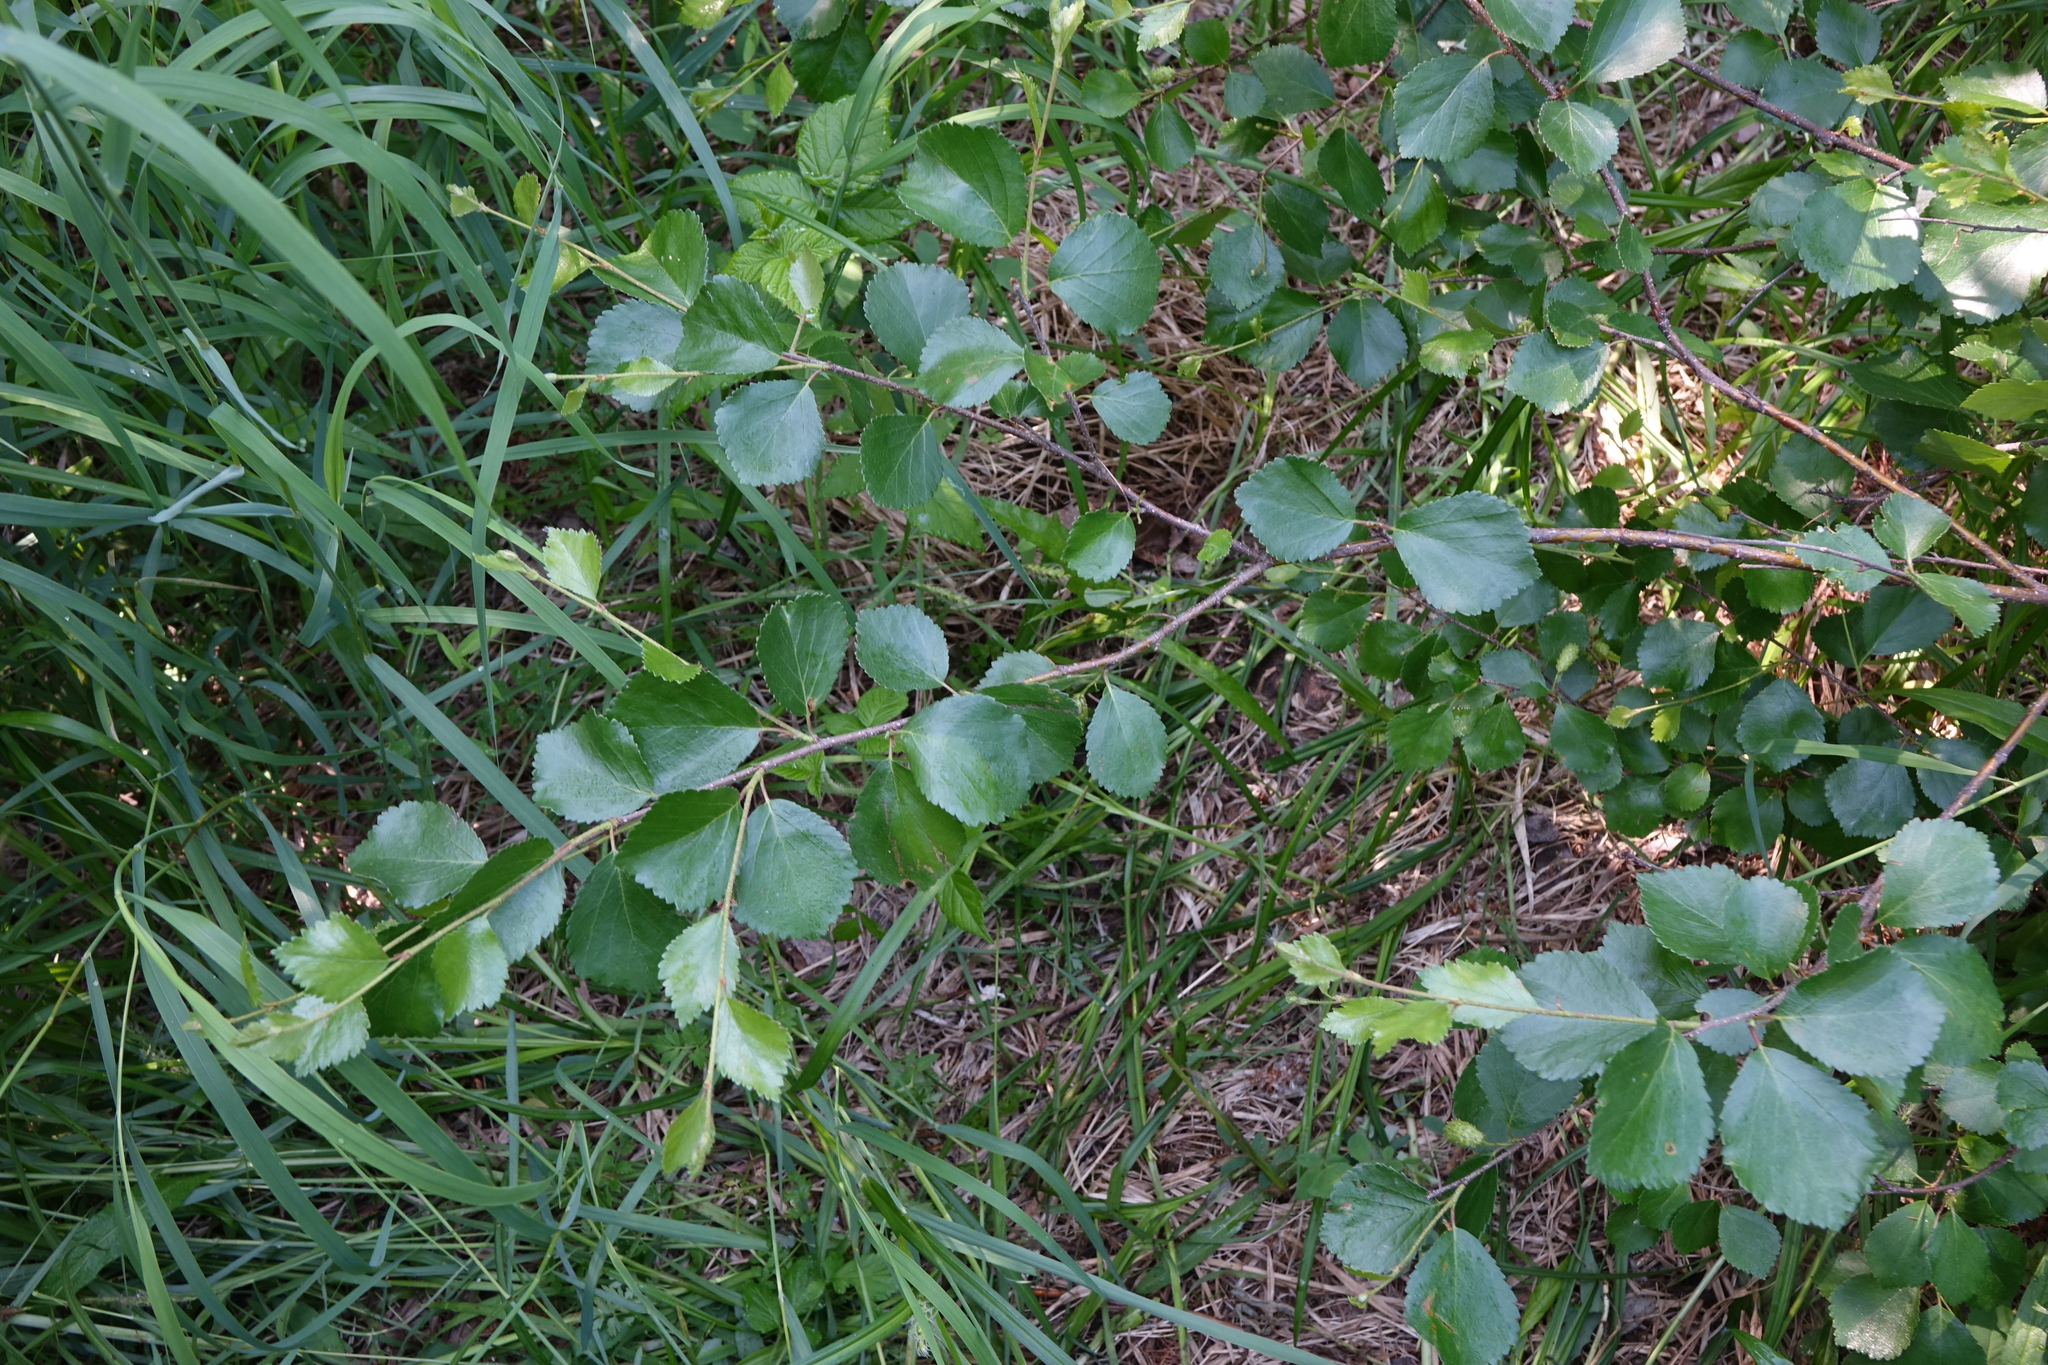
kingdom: Plantae
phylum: Tracheophyta
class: Magnoliopsida
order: Fagales
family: Betulaceae
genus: Betula
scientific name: Betula fruticosa
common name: Japanese bog birch
